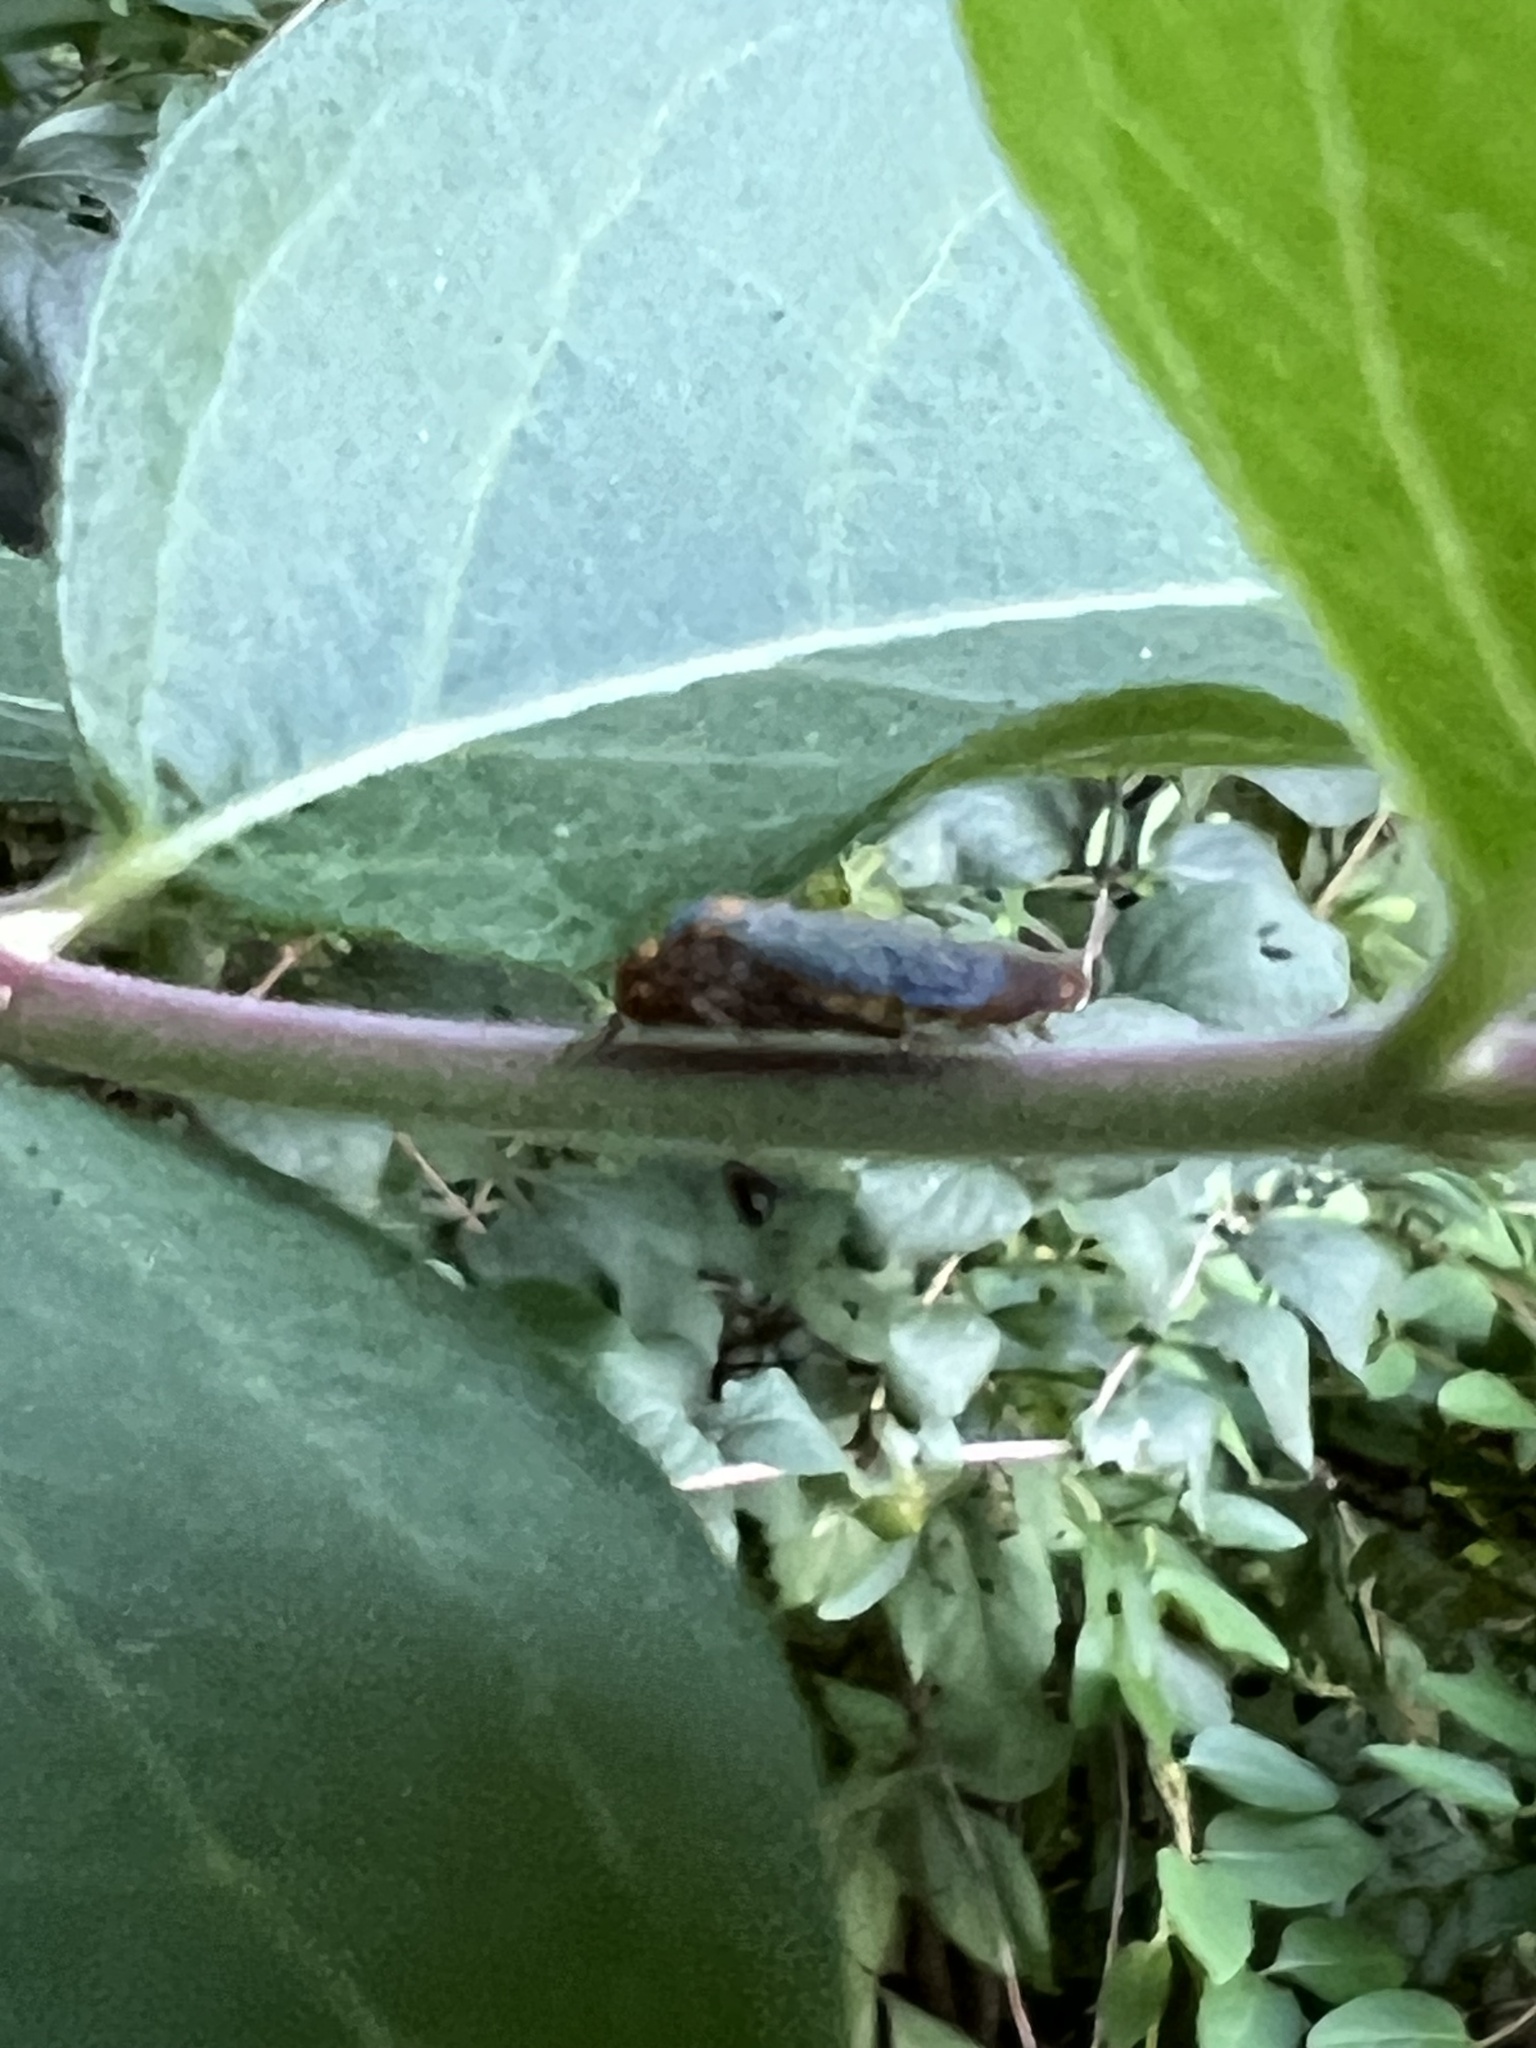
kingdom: Animalia
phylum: Arthropoda
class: Insecta
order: Hemiptera
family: Cicadellidae
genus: Oncometopia
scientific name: Oncometopia orbona
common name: Broad-headed sharpshooter
